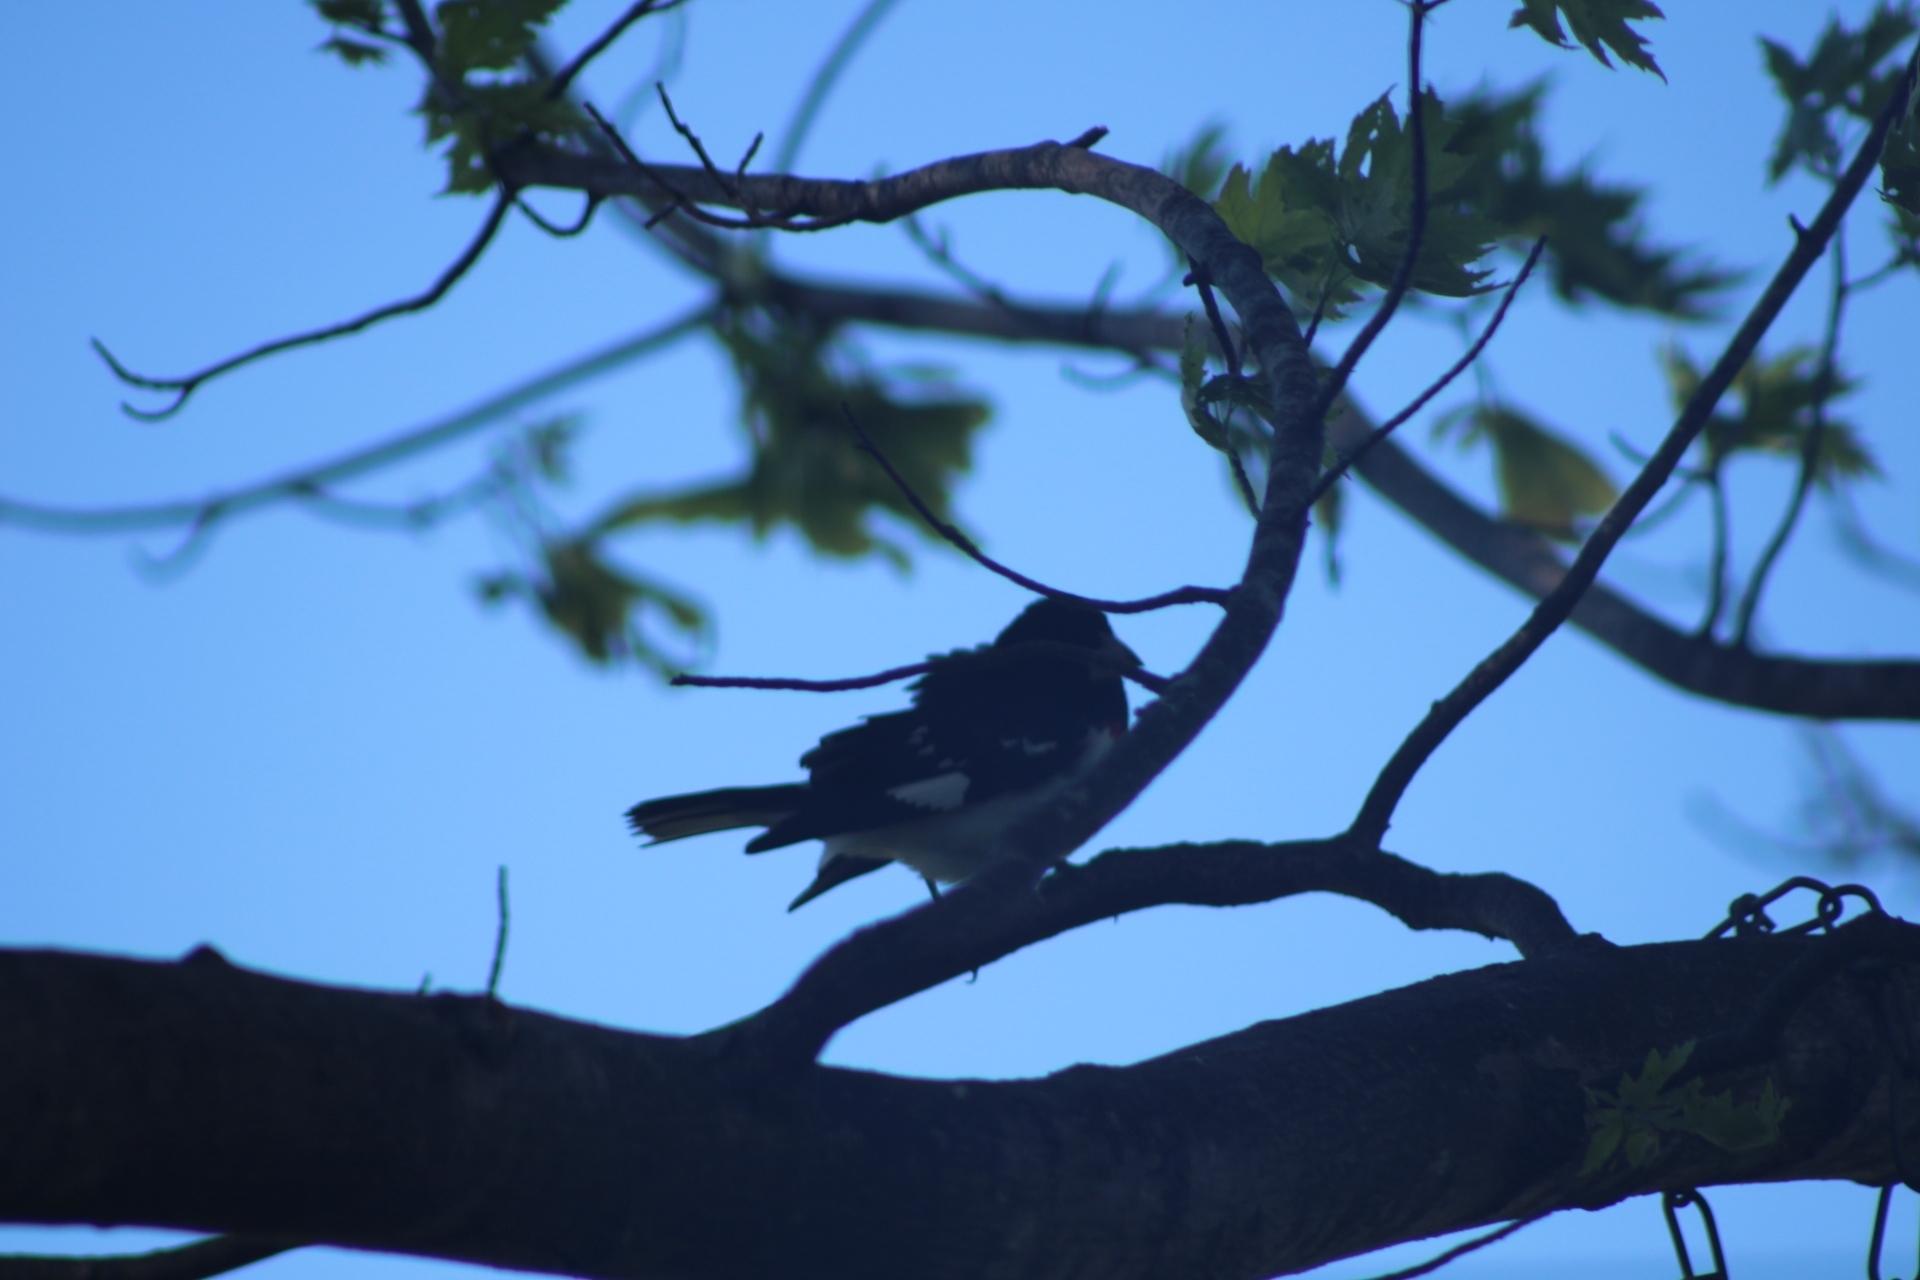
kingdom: Animalia
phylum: Chordata
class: Aves
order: Passeriformes
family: Cardinalidae
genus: Pheucticus
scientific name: Pheucticus ludovicianus
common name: Rose-breasted grosbeak
